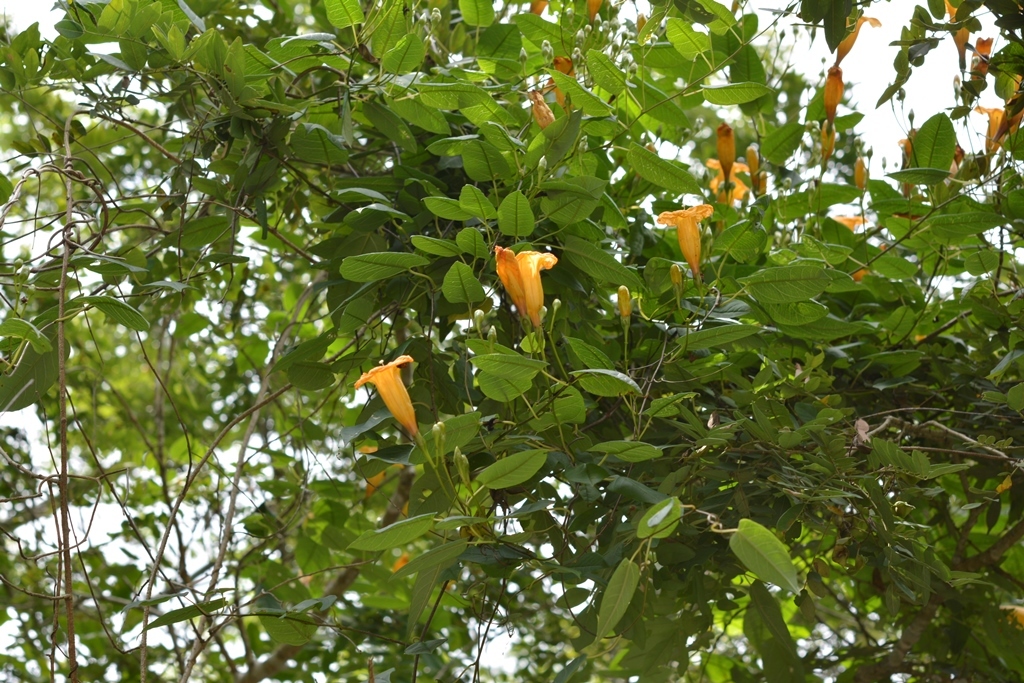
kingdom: Plantae
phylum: Tracheophyta
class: Magnoliopsida
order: Solanales
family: Convolvulaceae
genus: Ipomoea
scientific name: Ipomoea aurantiaca
